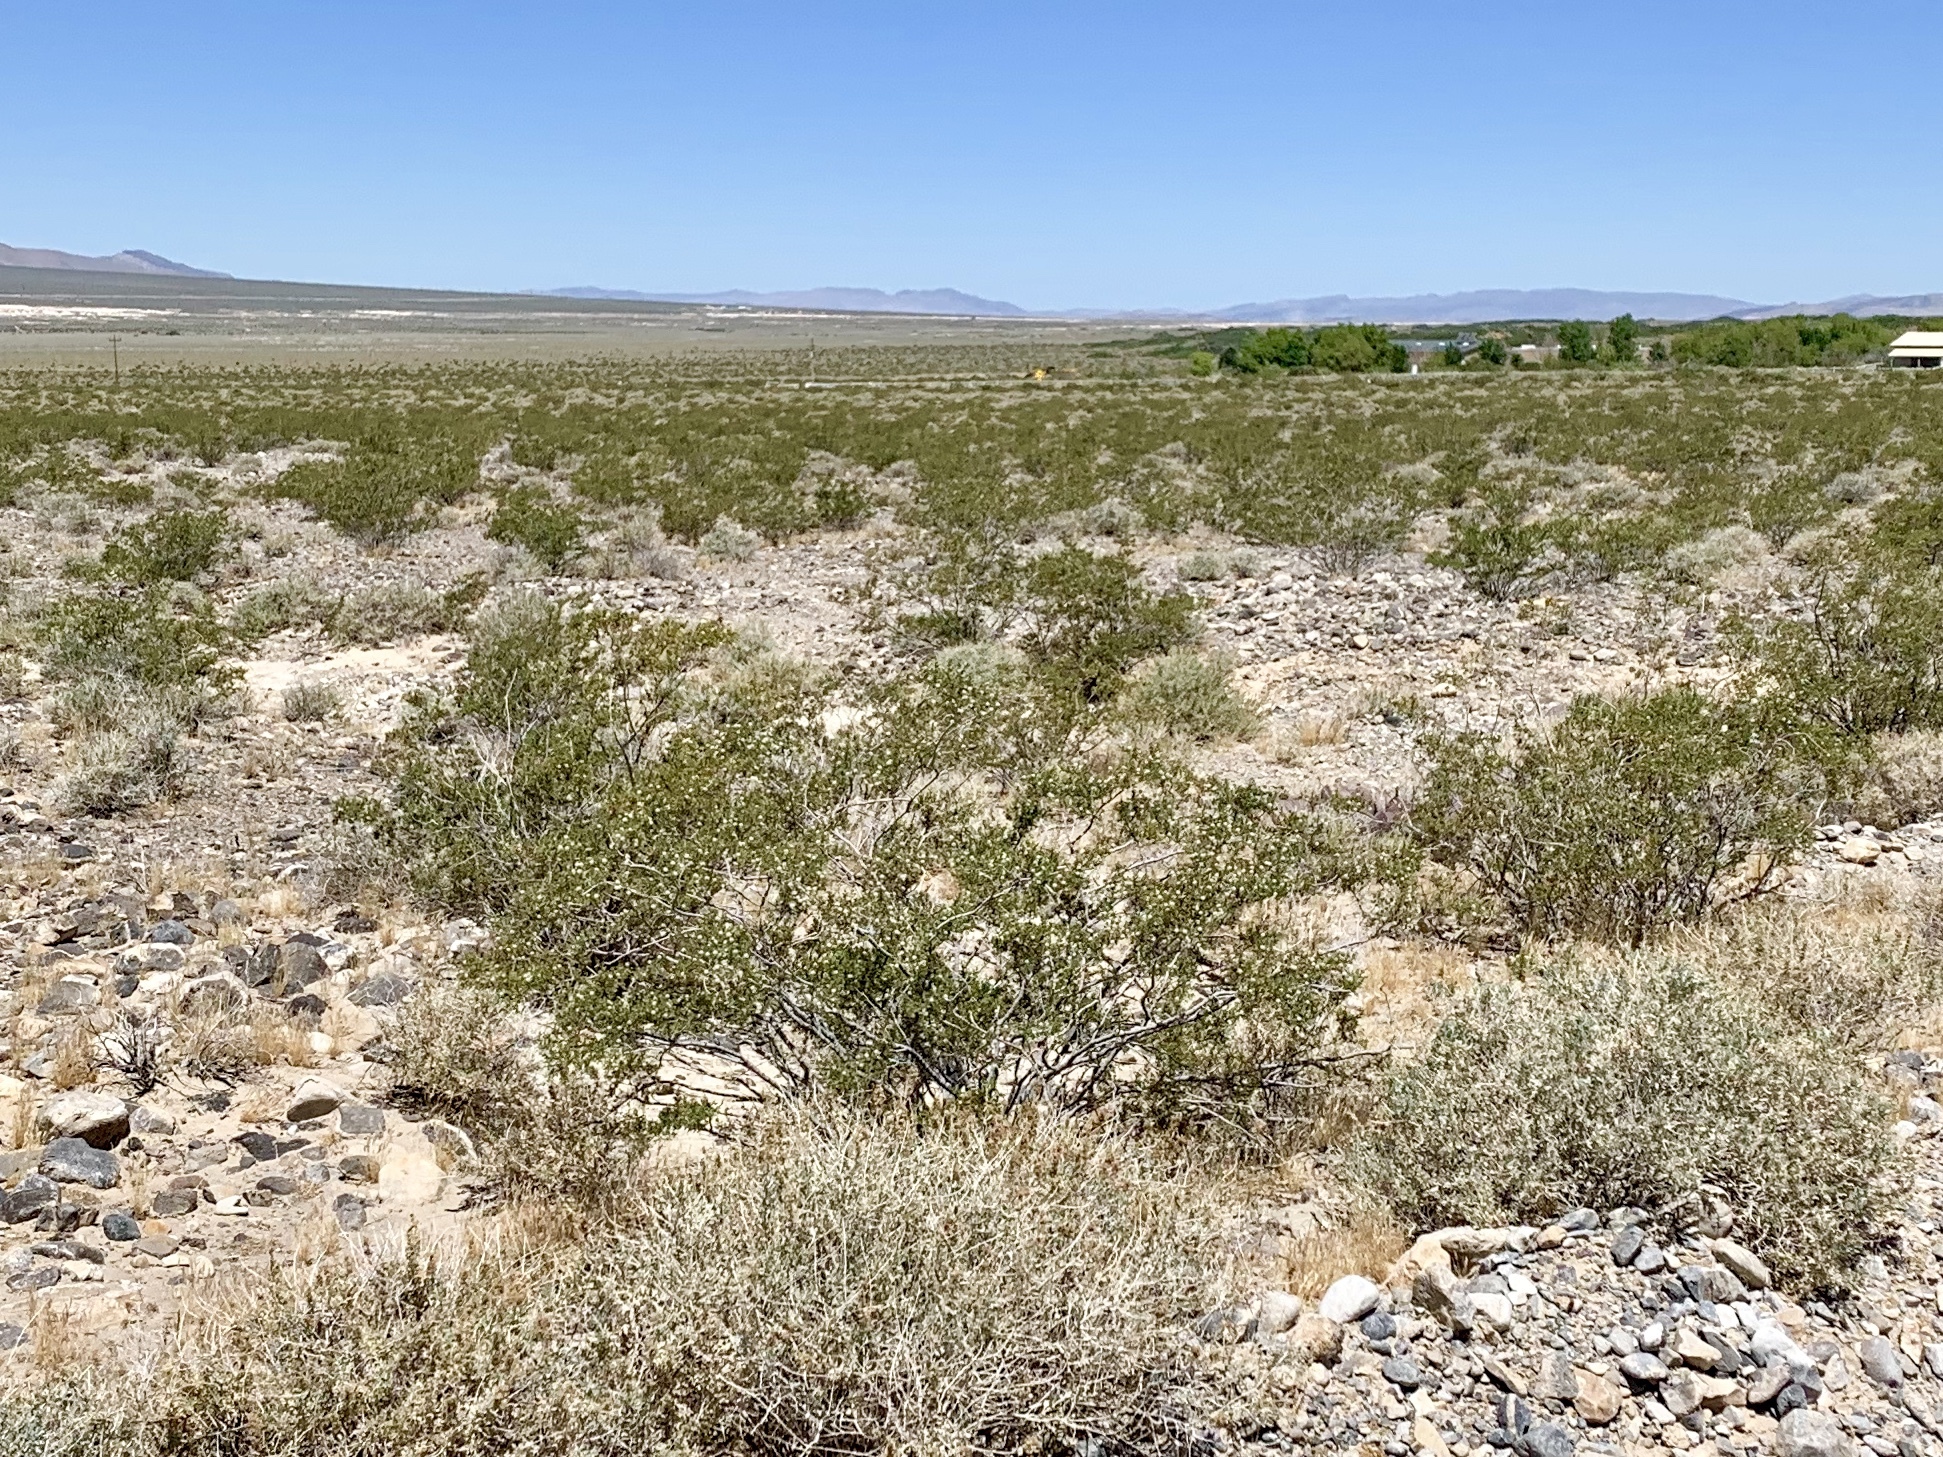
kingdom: Plantae
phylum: Tracheophyta
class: Magnoliopsida
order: Zygophyllales
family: Zygophyllaceae
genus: Larrea
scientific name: Larrea tridentata
